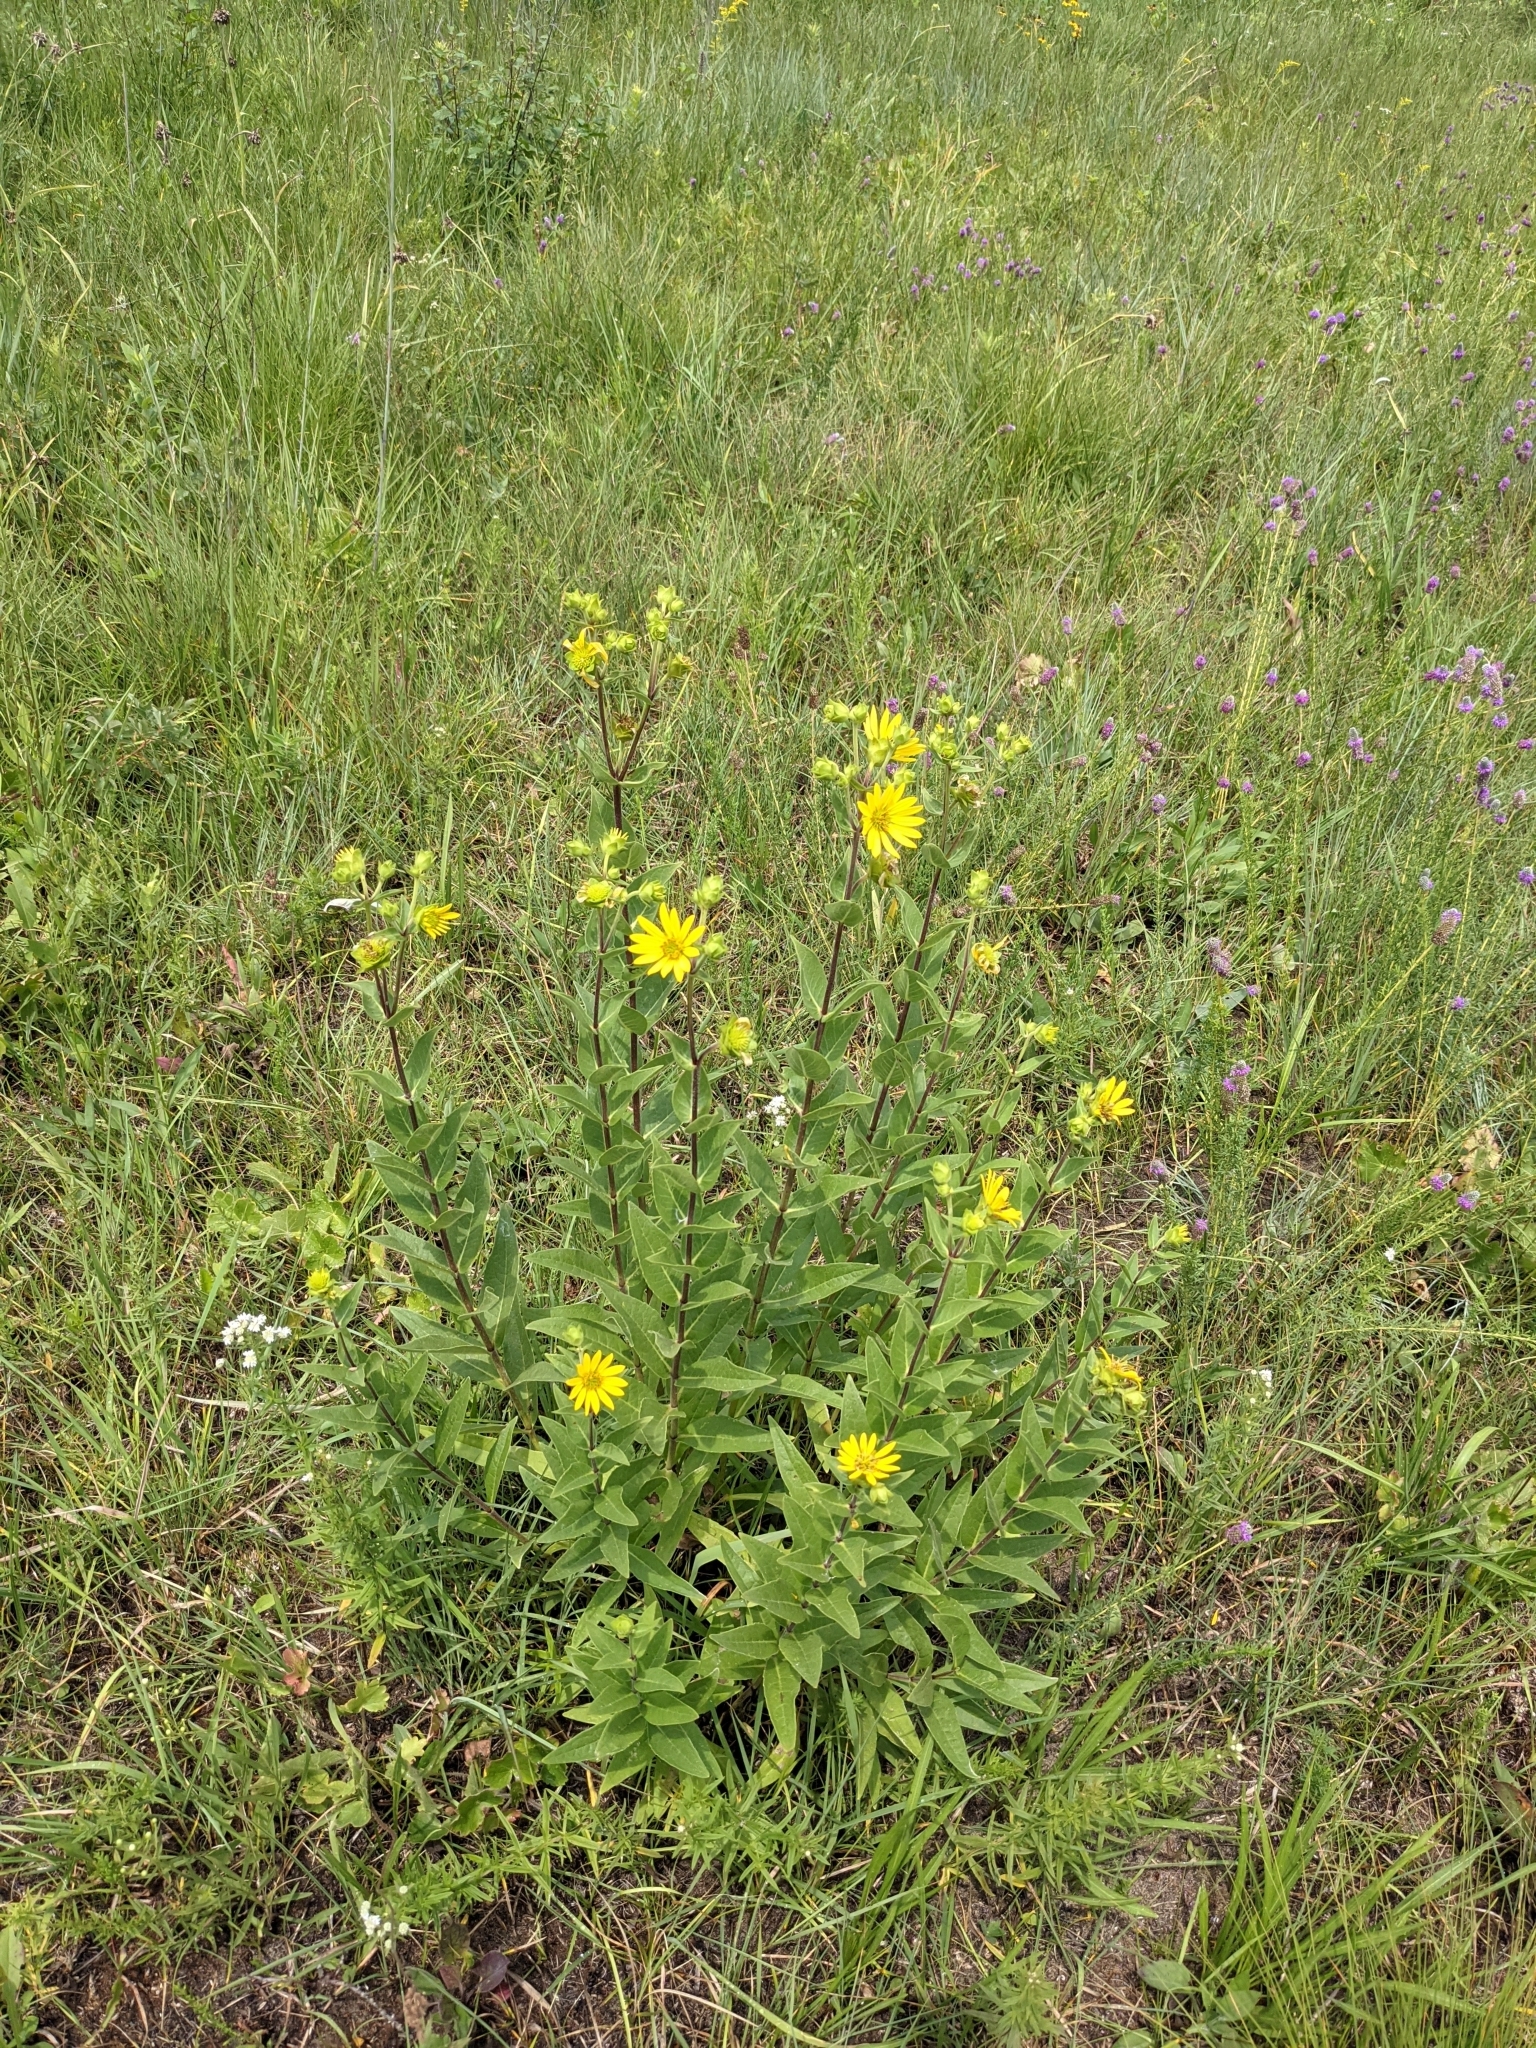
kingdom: Plantae
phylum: Tracheophyta
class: Magnoliopsida
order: Asterales
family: Asteraceae
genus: Silphium
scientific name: Silphium integrifolium
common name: Whole-leaf rosinweed
